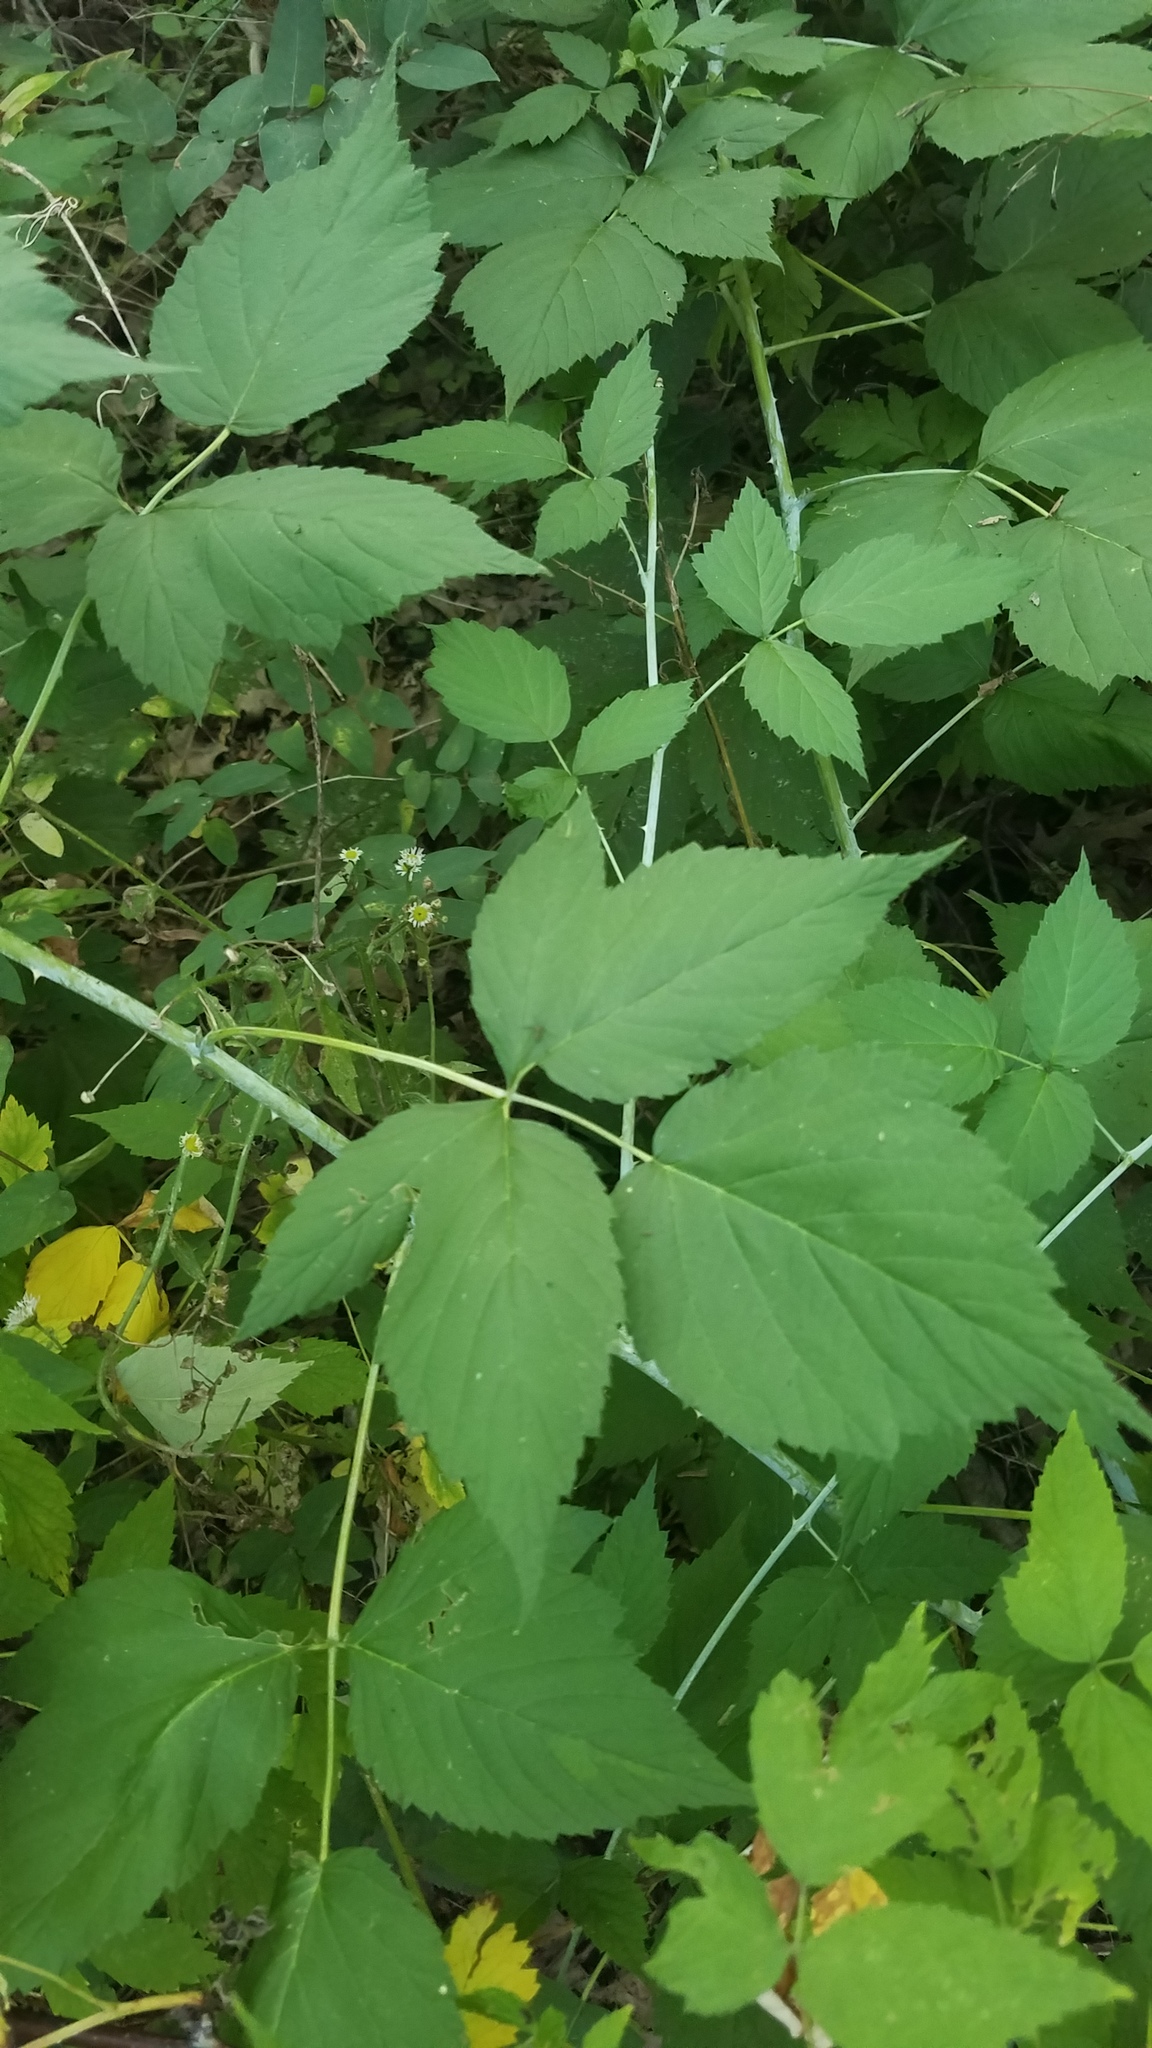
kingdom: Plantae
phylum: Tracheophyta
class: Magnoliopsida
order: Rosales
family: Rosaceae
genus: Rubus
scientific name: Rubus occidentalis
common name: Black raspberry
